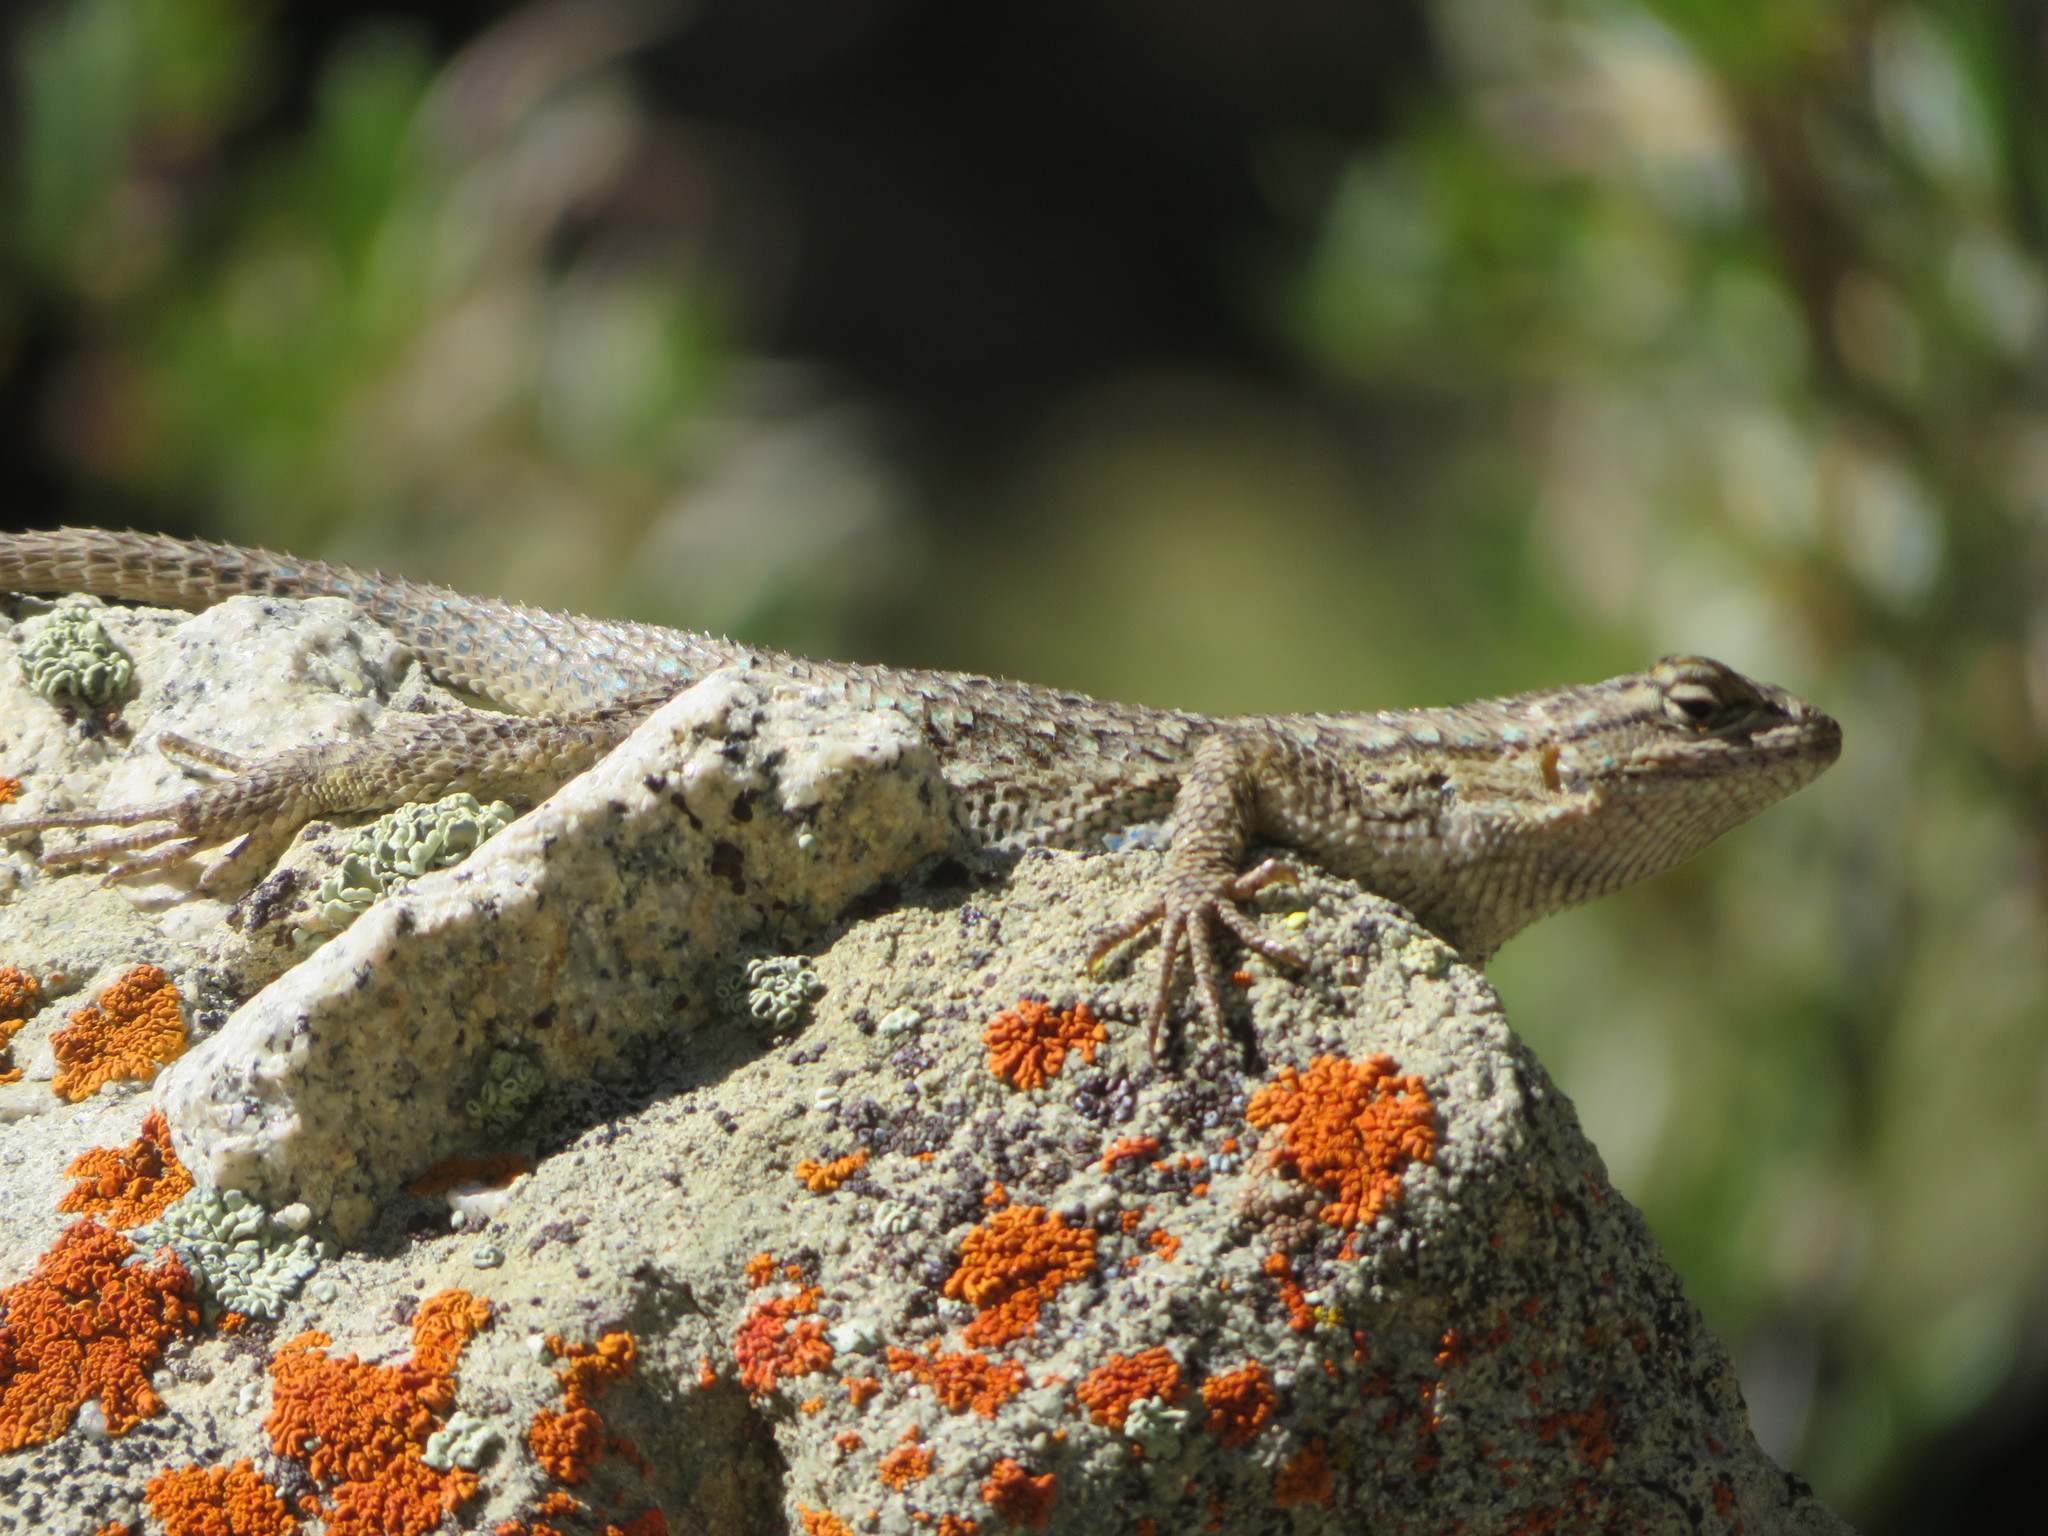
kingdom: Animalia
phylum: Chordata
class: Squamata
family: Phrynosomatidae
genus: Sceloporus
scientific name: Sceloporus occidentalis
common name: Western fence lizard
